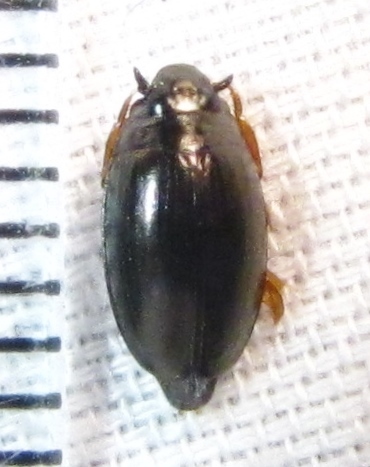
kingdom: Animalia
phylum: Arthropoda
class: Insecta
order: Coleoptera
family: Gyrinidae
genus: Gyrinus
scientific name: Gyrinus
